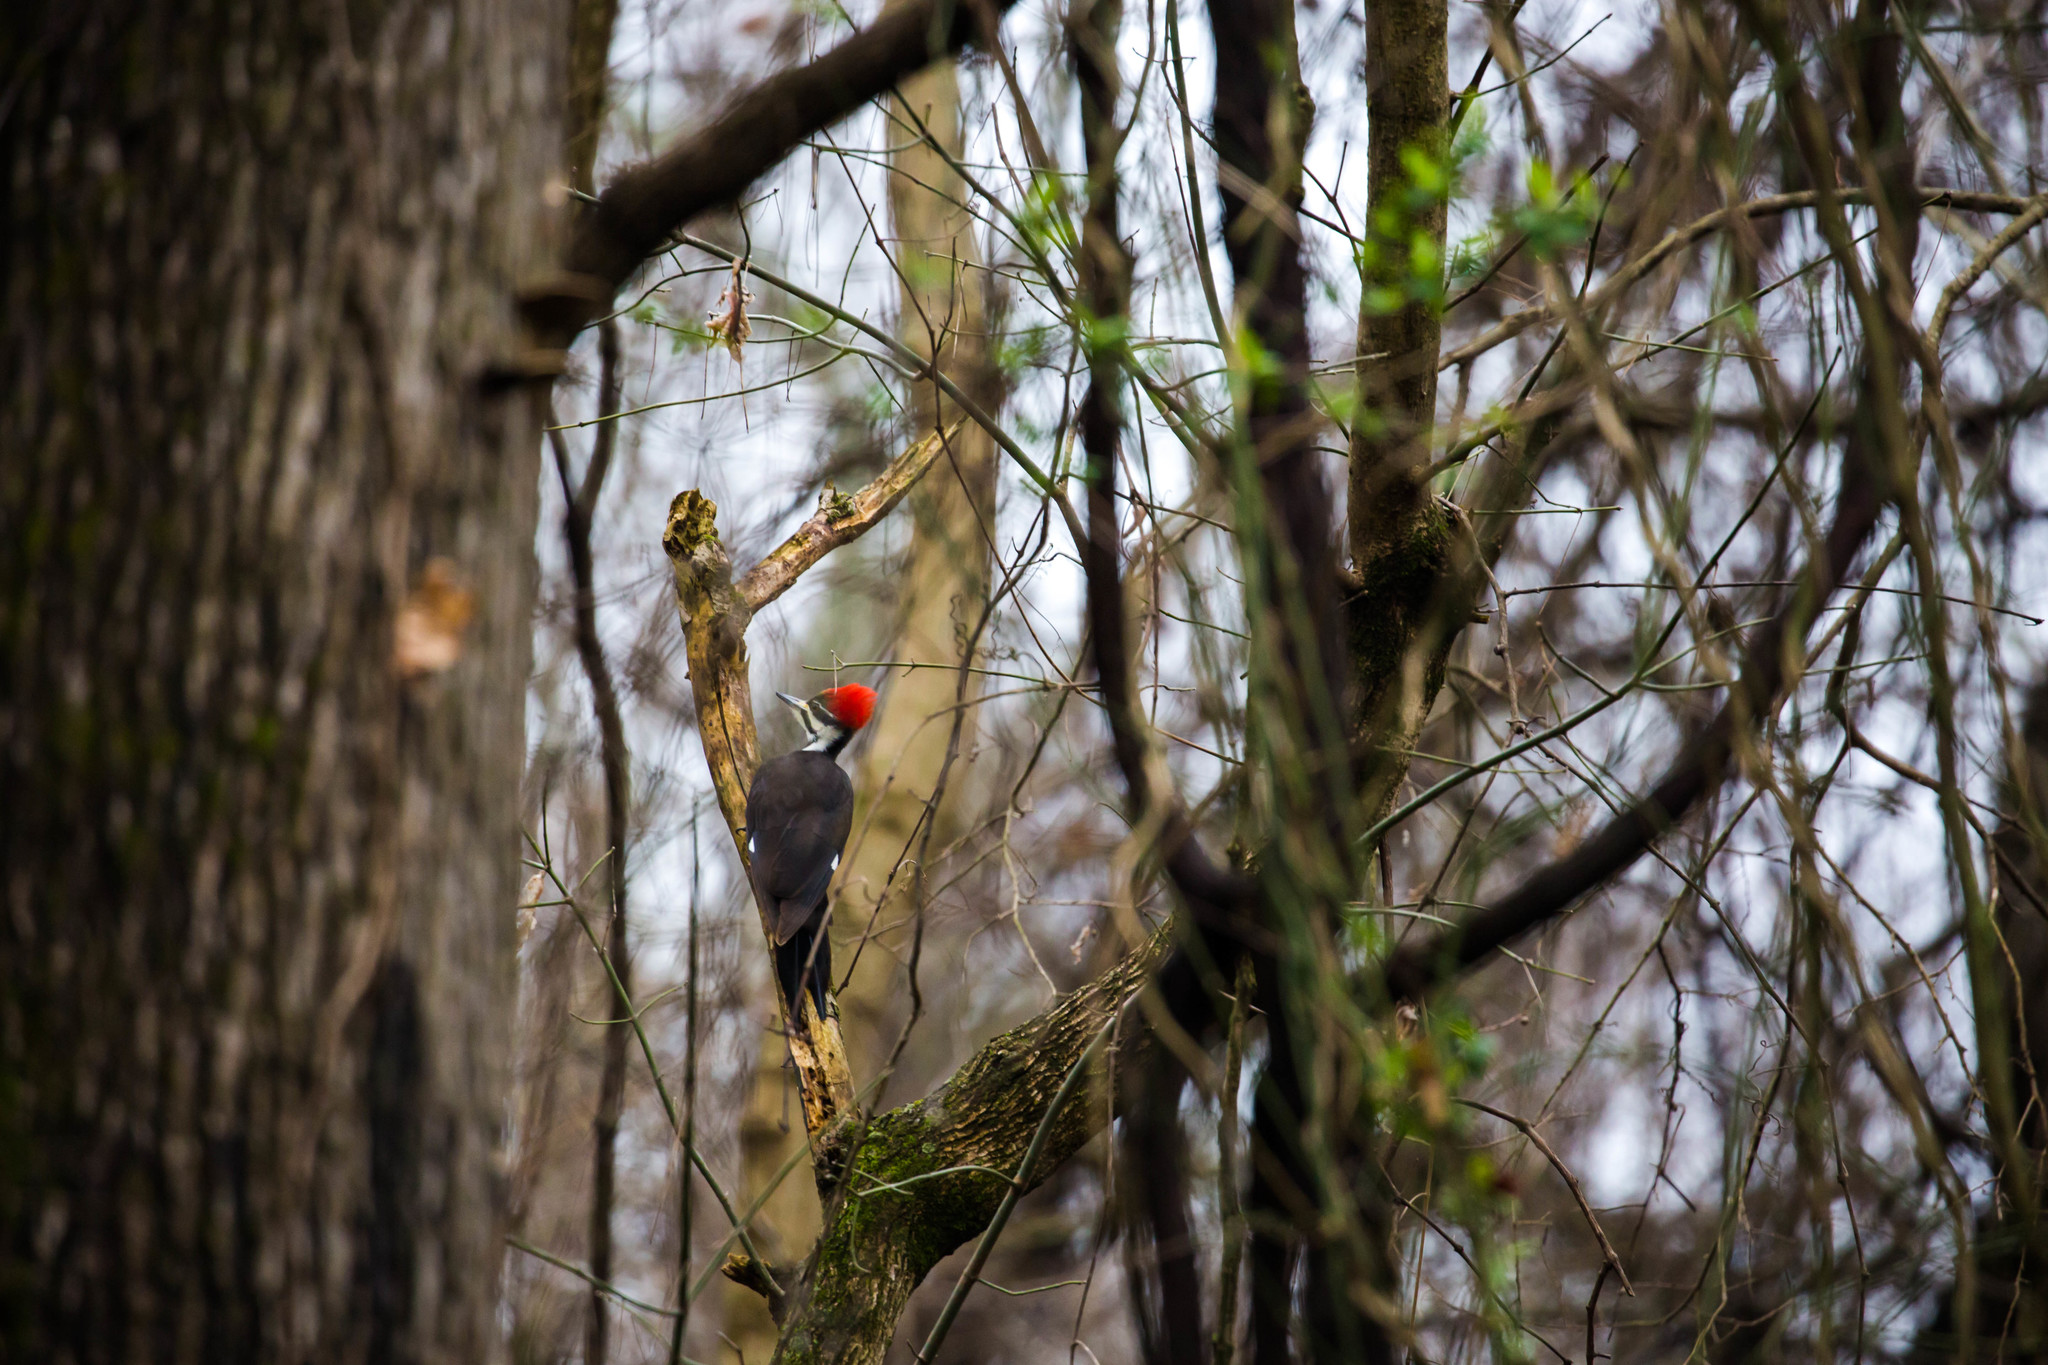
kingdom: Animalia
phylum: Chordata
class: Aves
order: Piciformes
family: Picidae
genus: Dryocopus
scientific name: Dryocopus pileatus
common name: Pileated woodpecker
